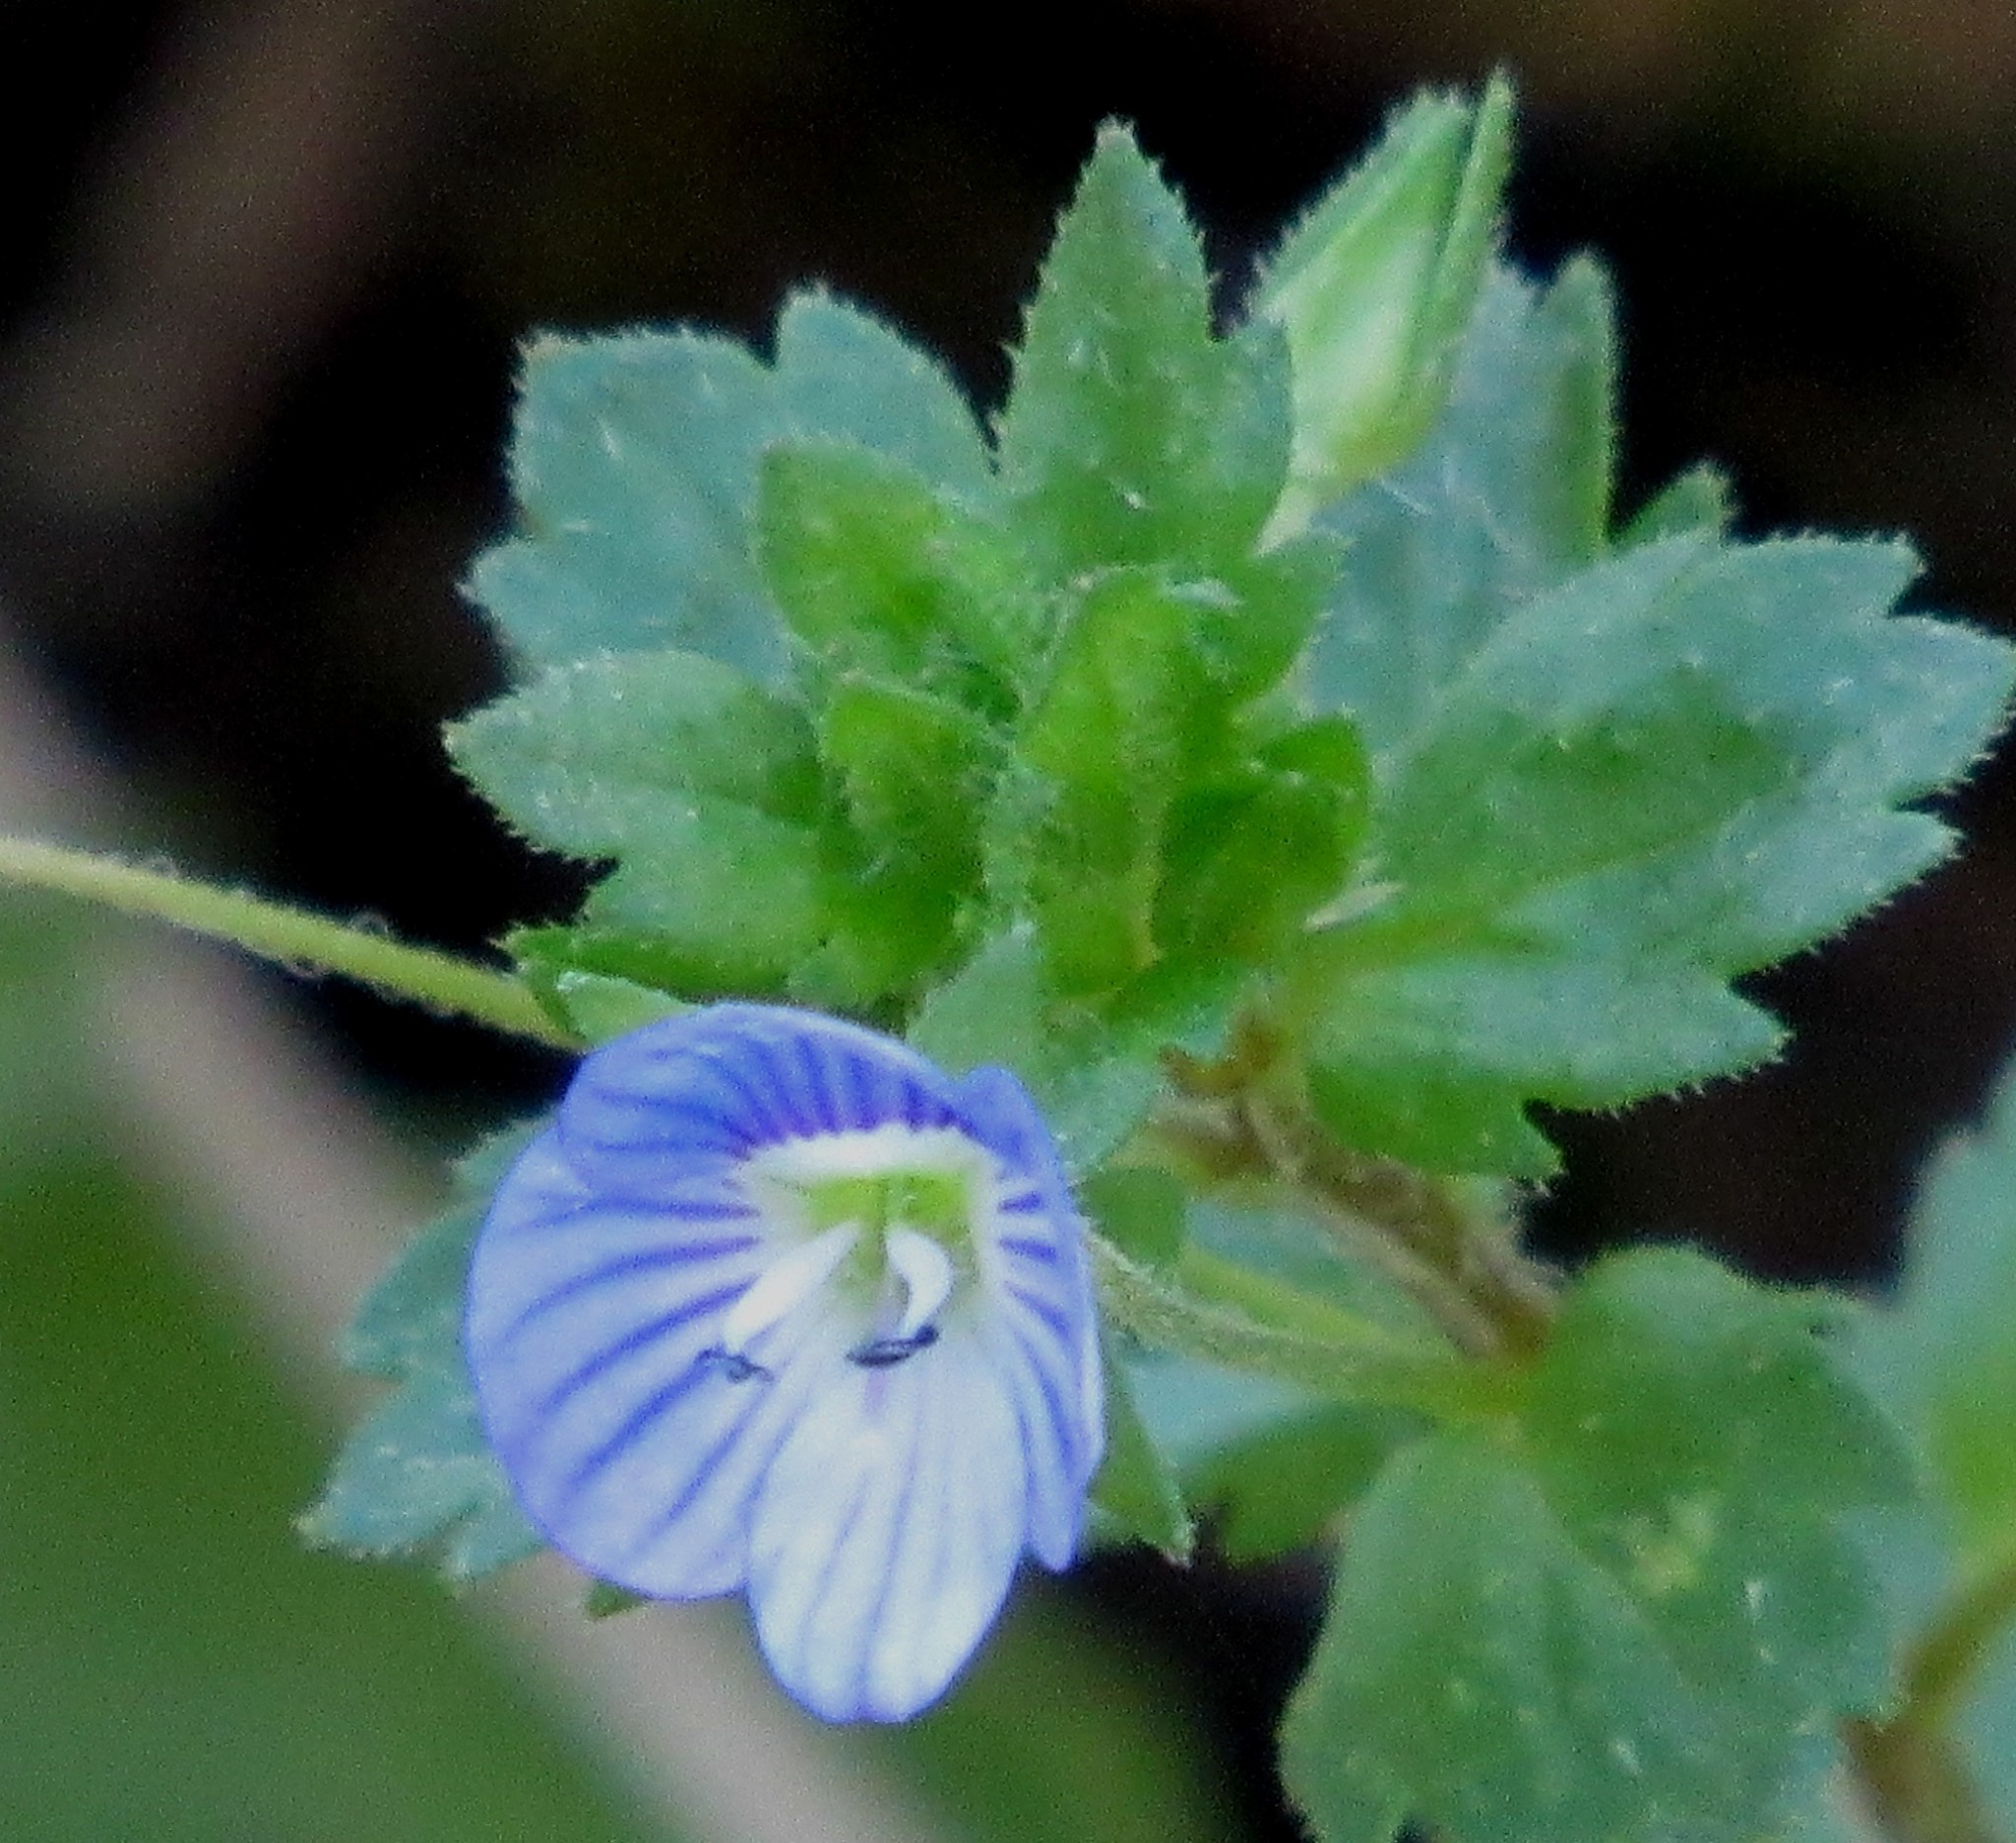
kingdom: Plantae
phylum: Tracheophyta
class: Magnoliopsida
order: Lamiales
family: Plantaginaceae
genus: Veronica
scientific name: Veronica persica
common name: Common field-speedwell
